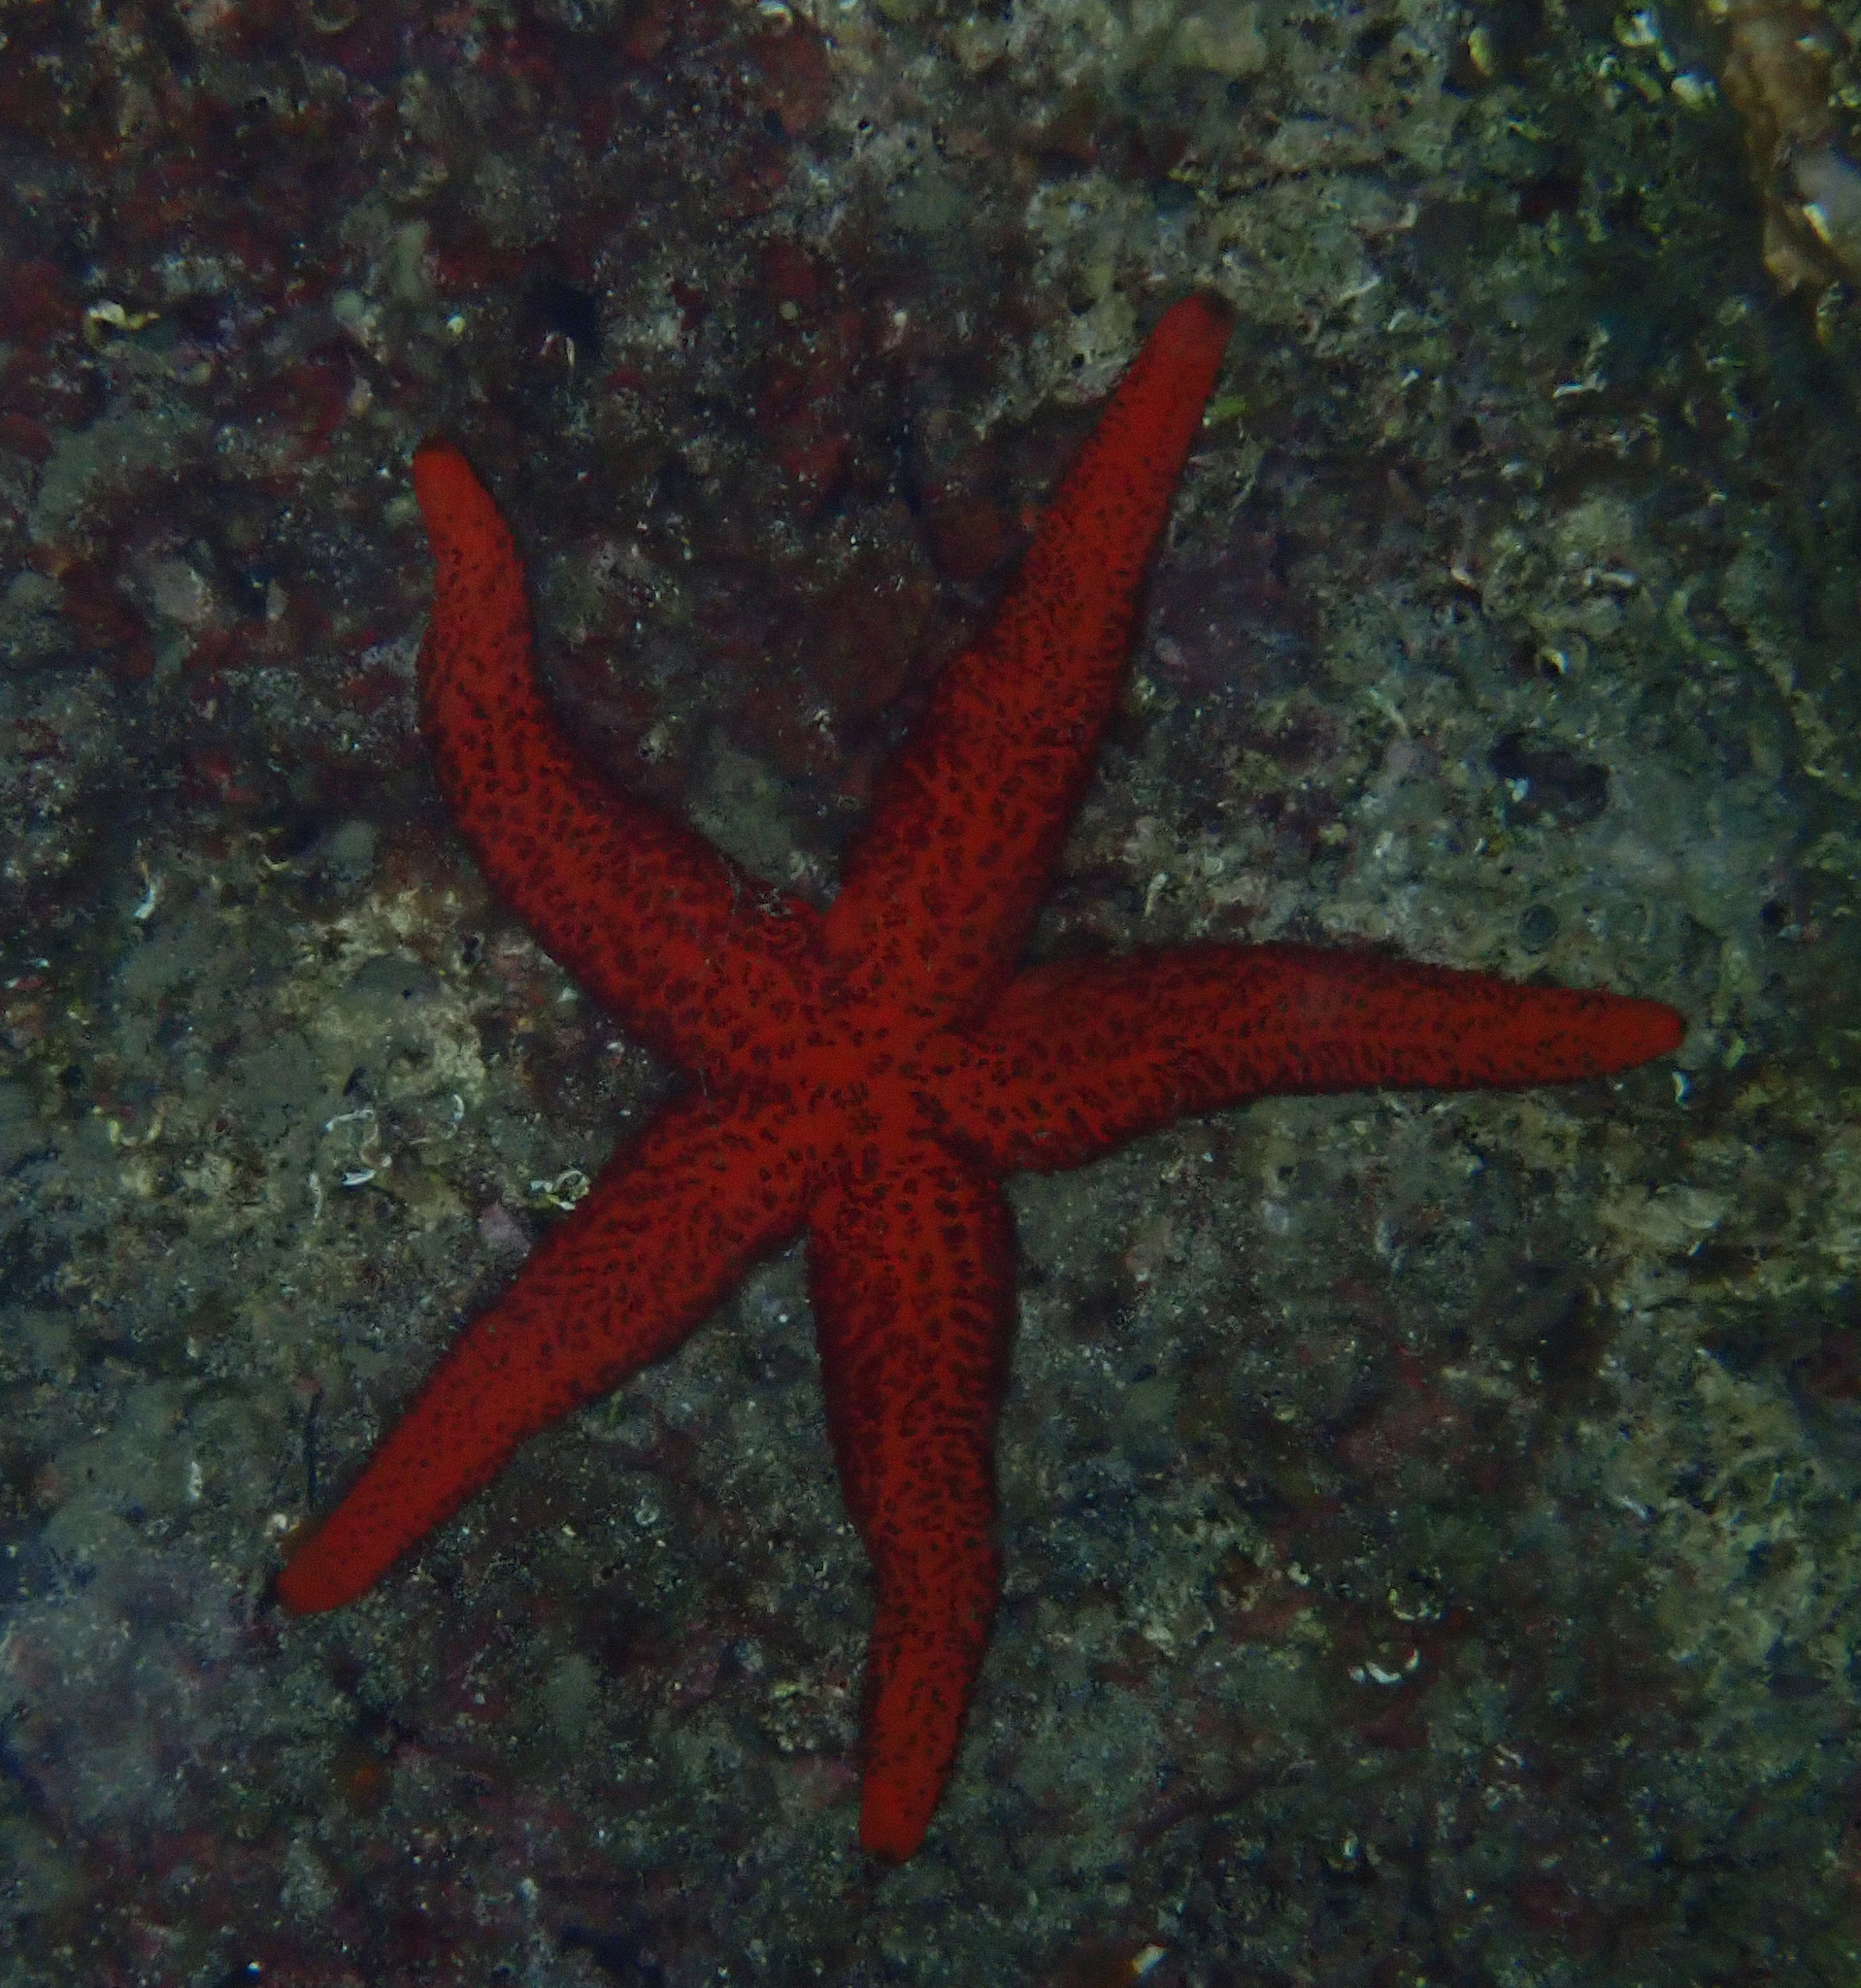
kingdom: Animalia
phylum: Echinodermata
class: Asteroidea
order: Spinulosida
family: Echinasteridae
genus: Echinaster
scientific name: Echinaster sepositus
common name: Red starfish
